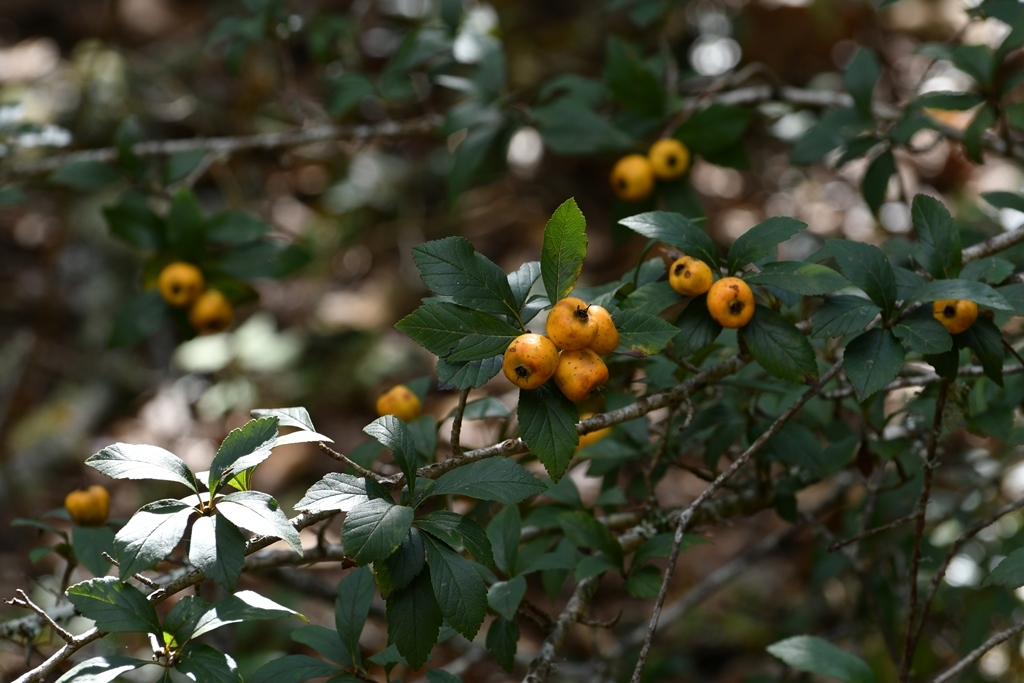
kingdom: Plantae
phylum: Tracheophyta
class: Magnoliopsida
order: Rosales
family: Rosaceae
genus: Crataegus
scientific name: Crataegus mexicana
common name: Mexican hawthorn
